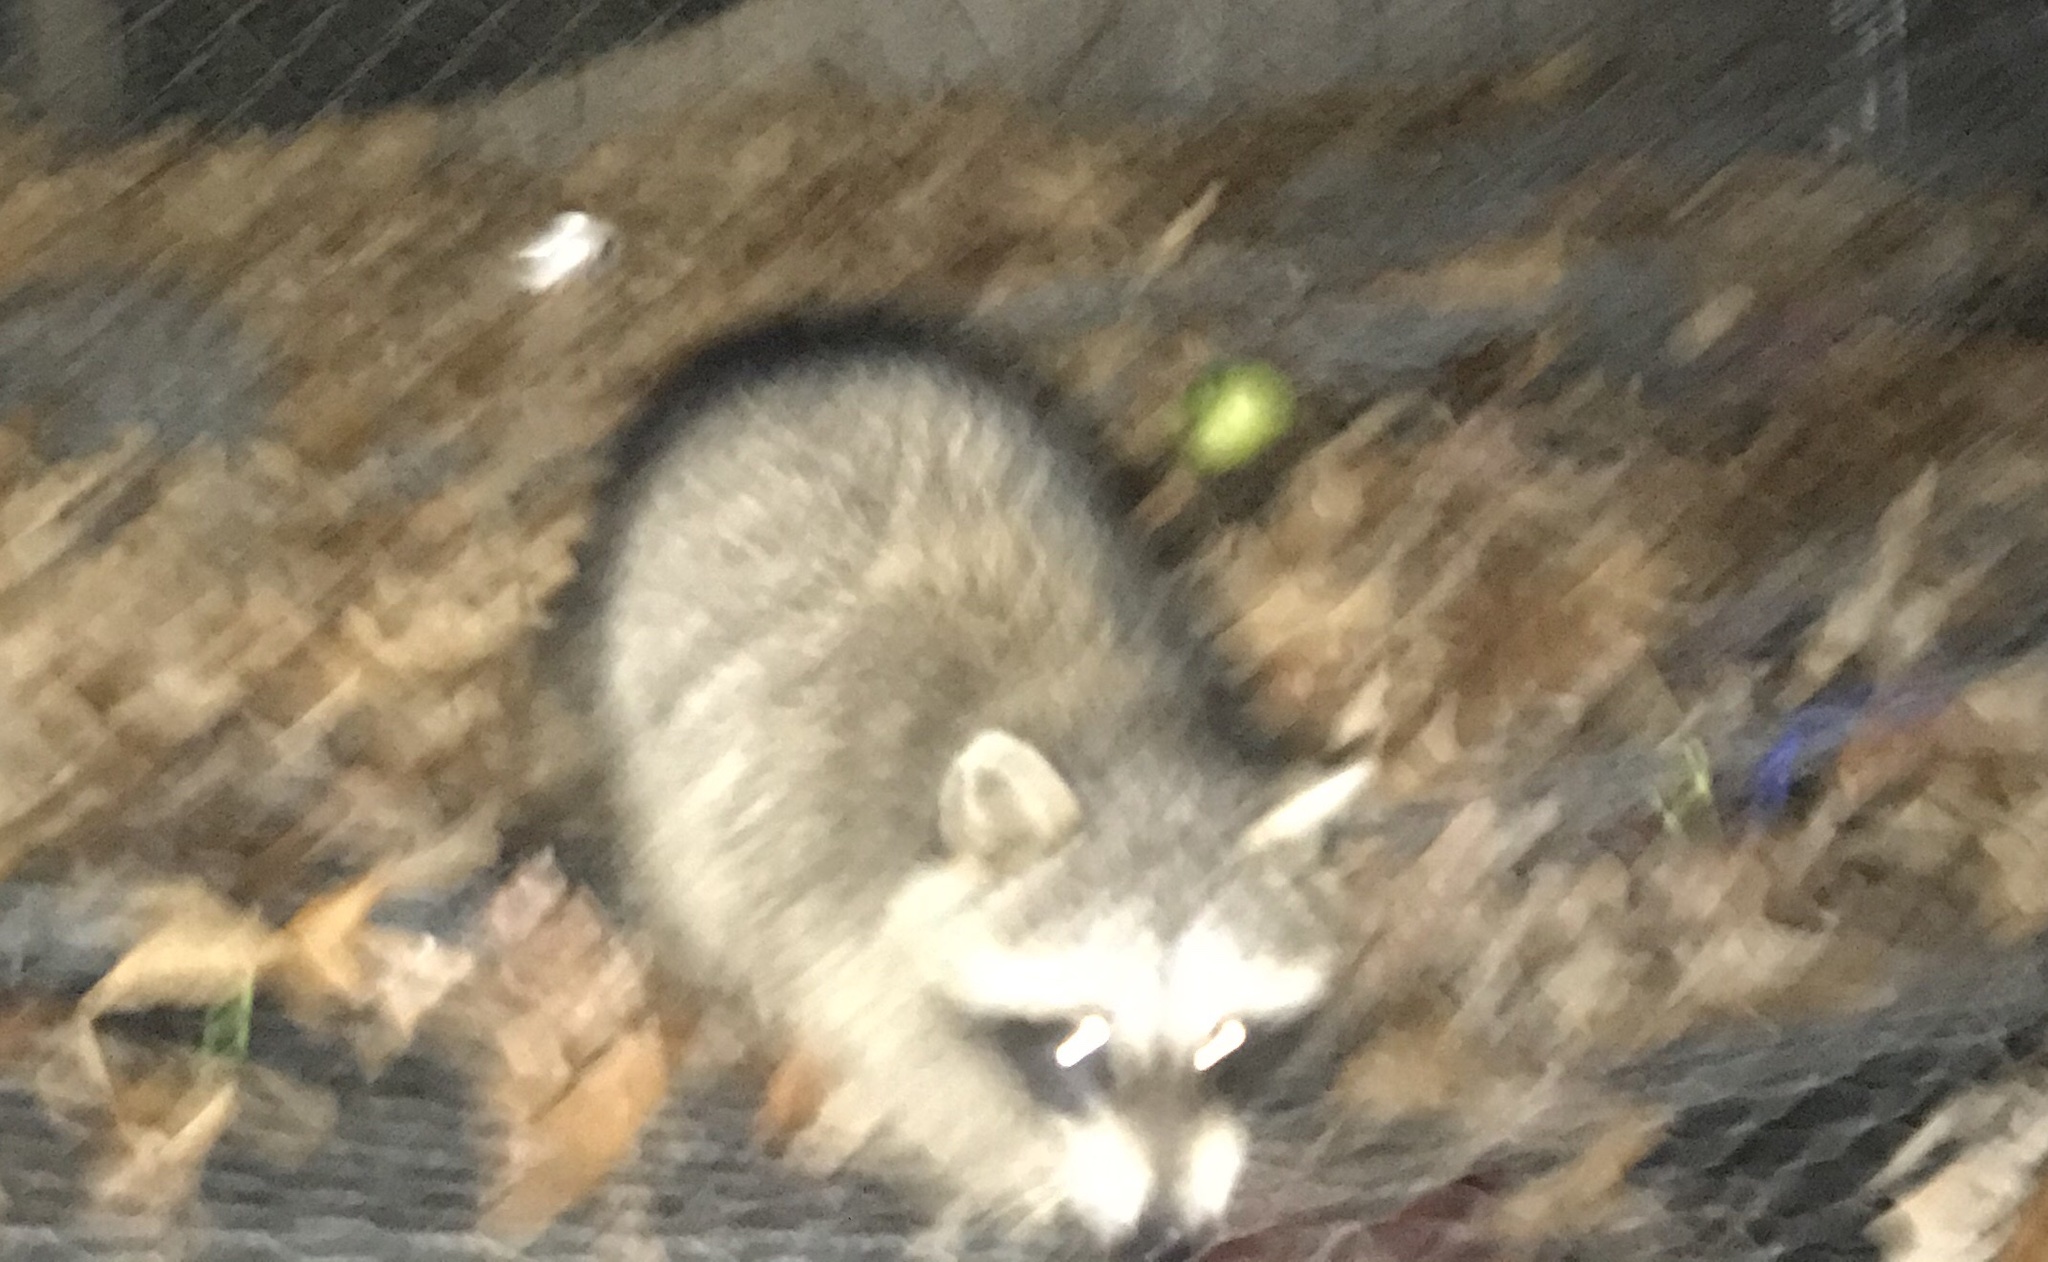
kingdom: Animalia
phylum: Chordata
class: Mammalia
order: Carnivora
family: Procyonidae
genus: Procyon
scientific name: Procyon lotor
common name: Raccoon
